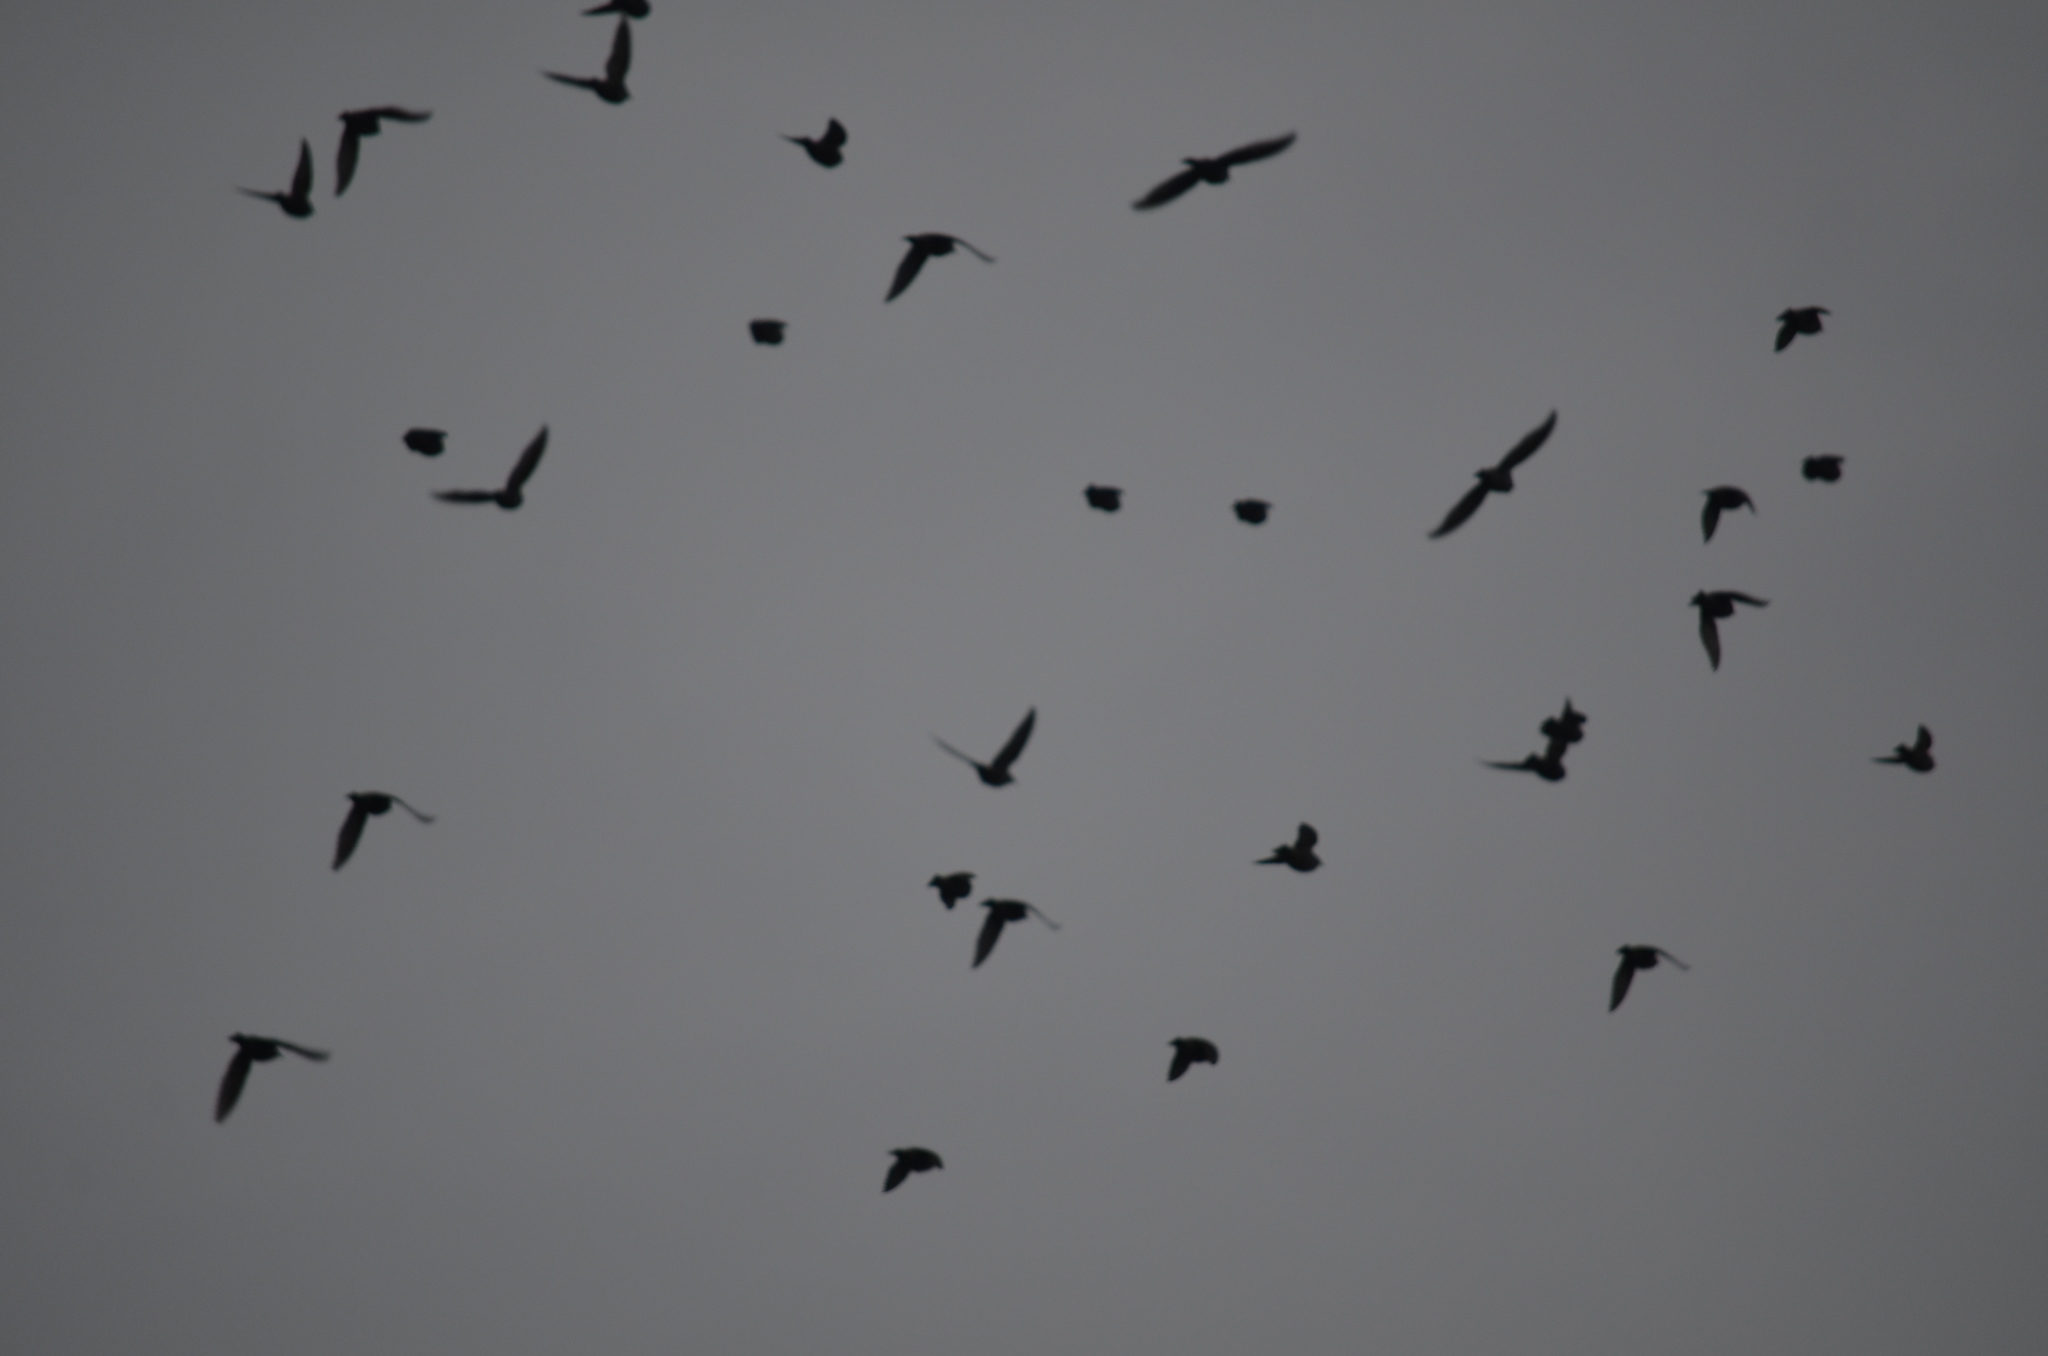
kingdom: Animalia
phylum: Chordata
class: Aves
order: Passeriformes
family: Sturnidae
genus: Sturnus
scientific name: Sturnus vulgaris
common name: Common starling
